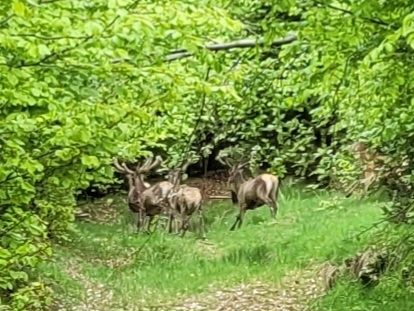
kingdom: Animalia
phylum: Chordata
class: Mammalia
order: Artiodactyla
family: Cervidae
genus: Cervus
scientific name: Cervus elaphus
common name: Red deer
